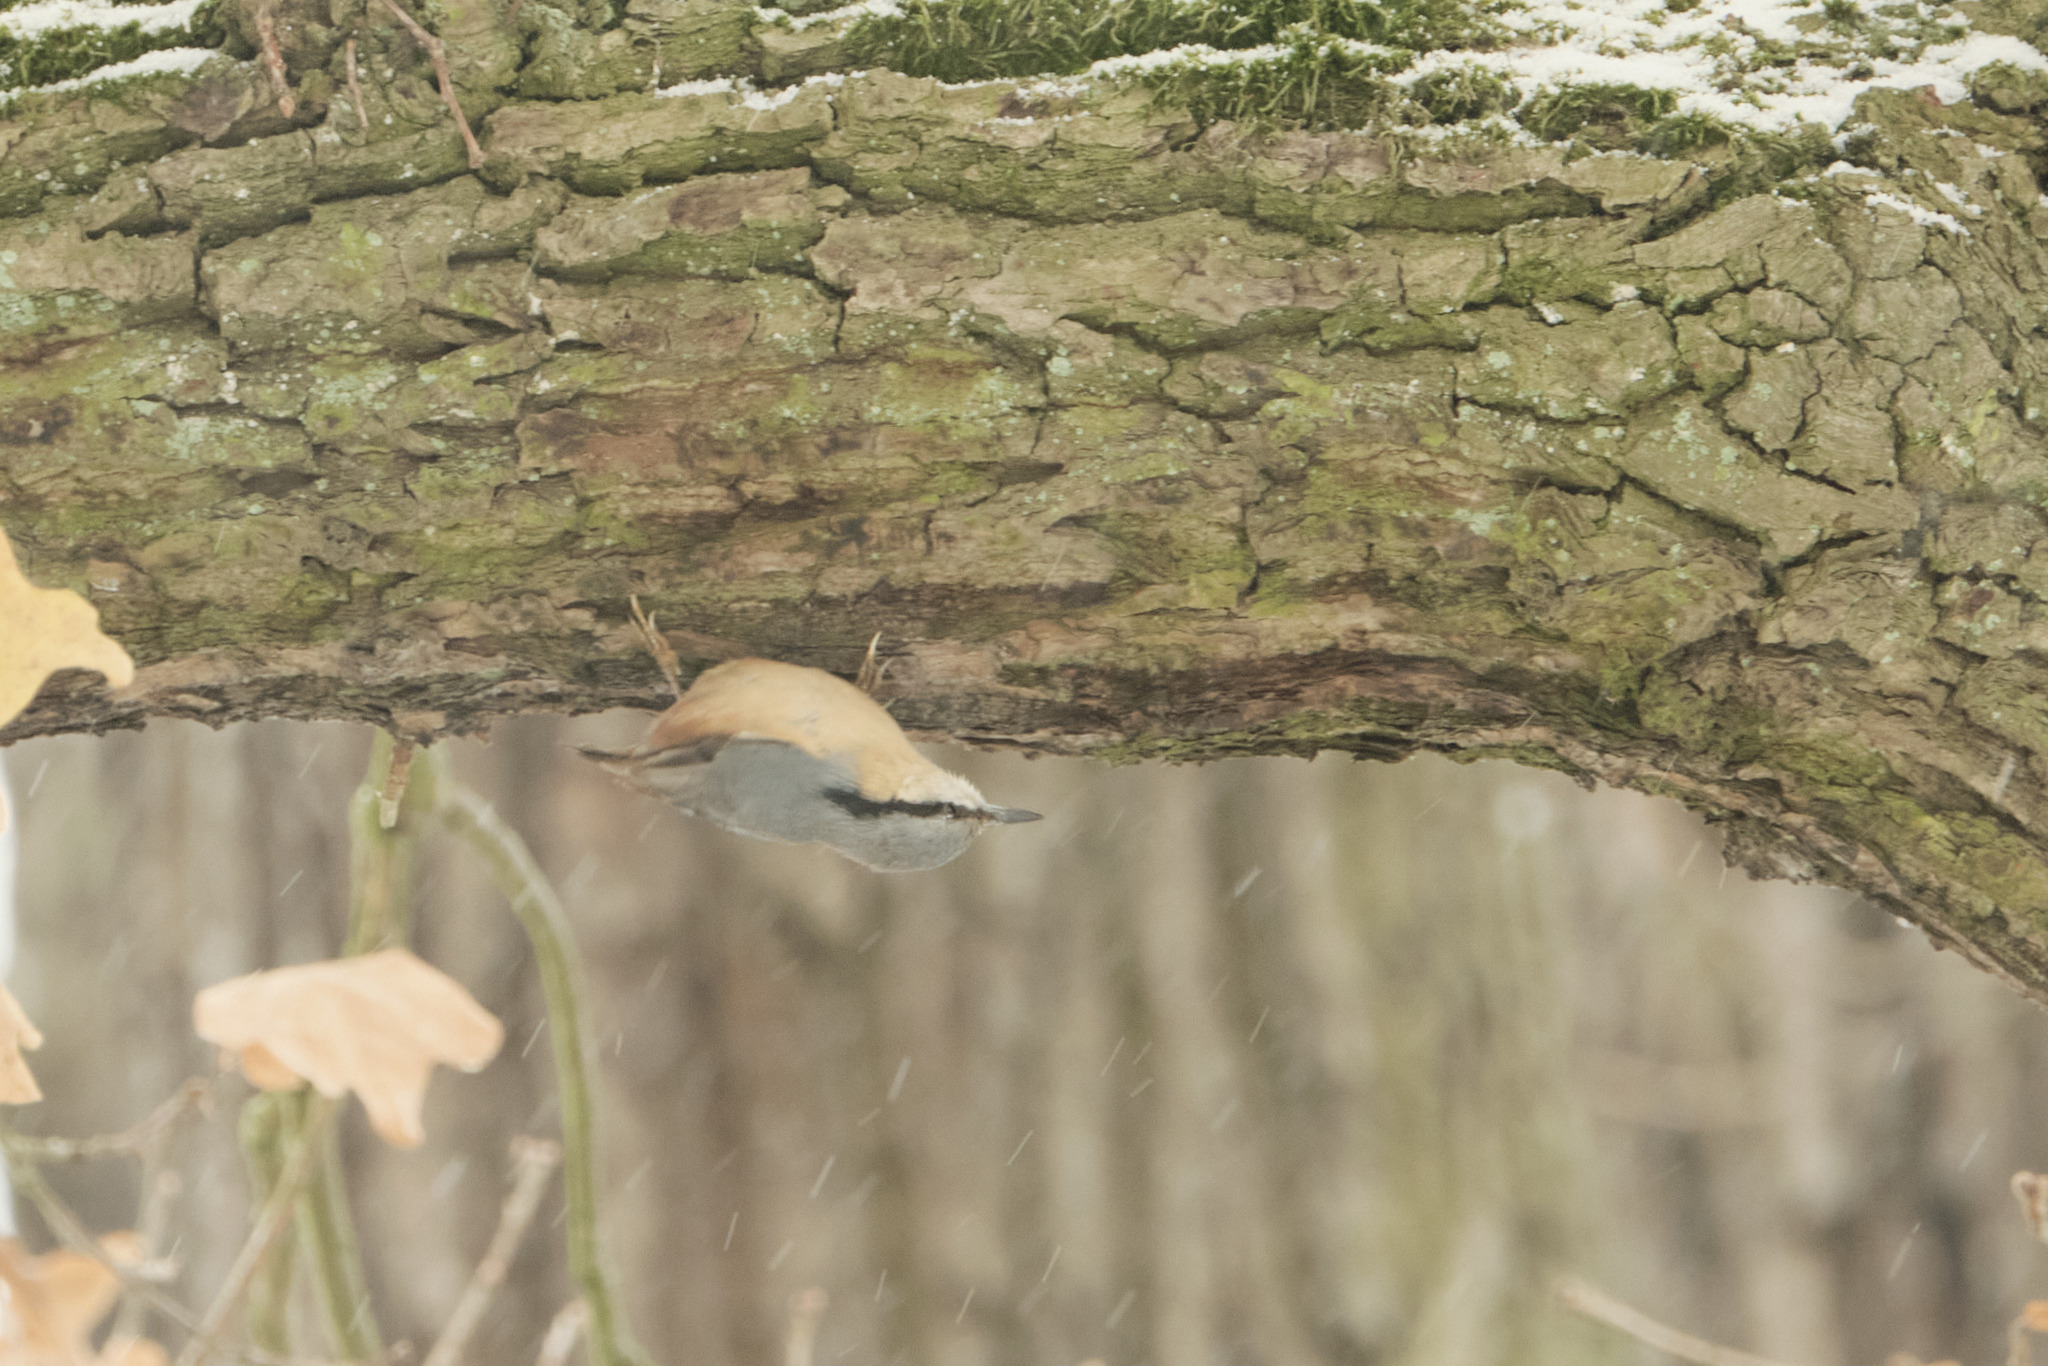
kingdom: Animalia
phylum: Chordata
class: Aves
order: Passeriformes
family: Sittidae
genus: Sitta
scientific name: Sitta europaea
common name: Eurasian nuthatch
